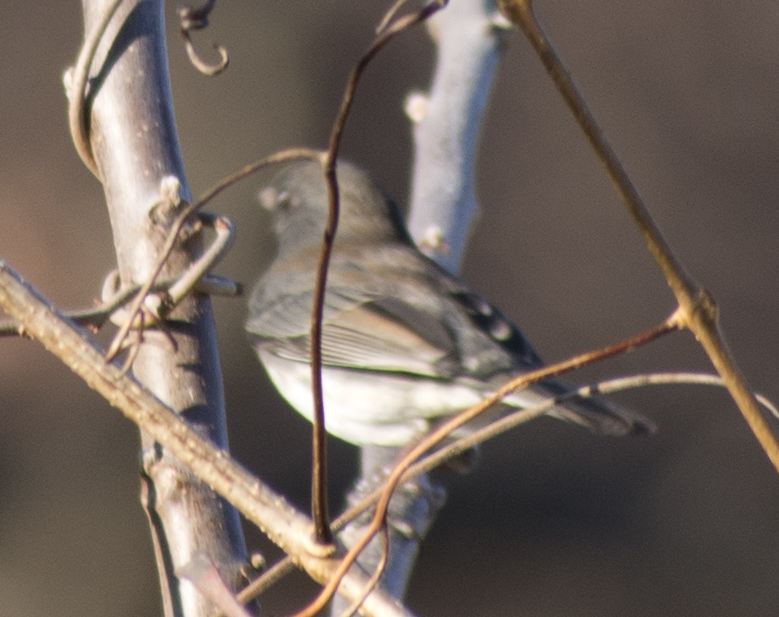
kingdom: Animalia
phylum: Chordata
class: Aves
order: Passeriformes
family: Passerellidae
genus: Junco
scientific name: Junco hyemalis
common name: Dark-eyed junco
